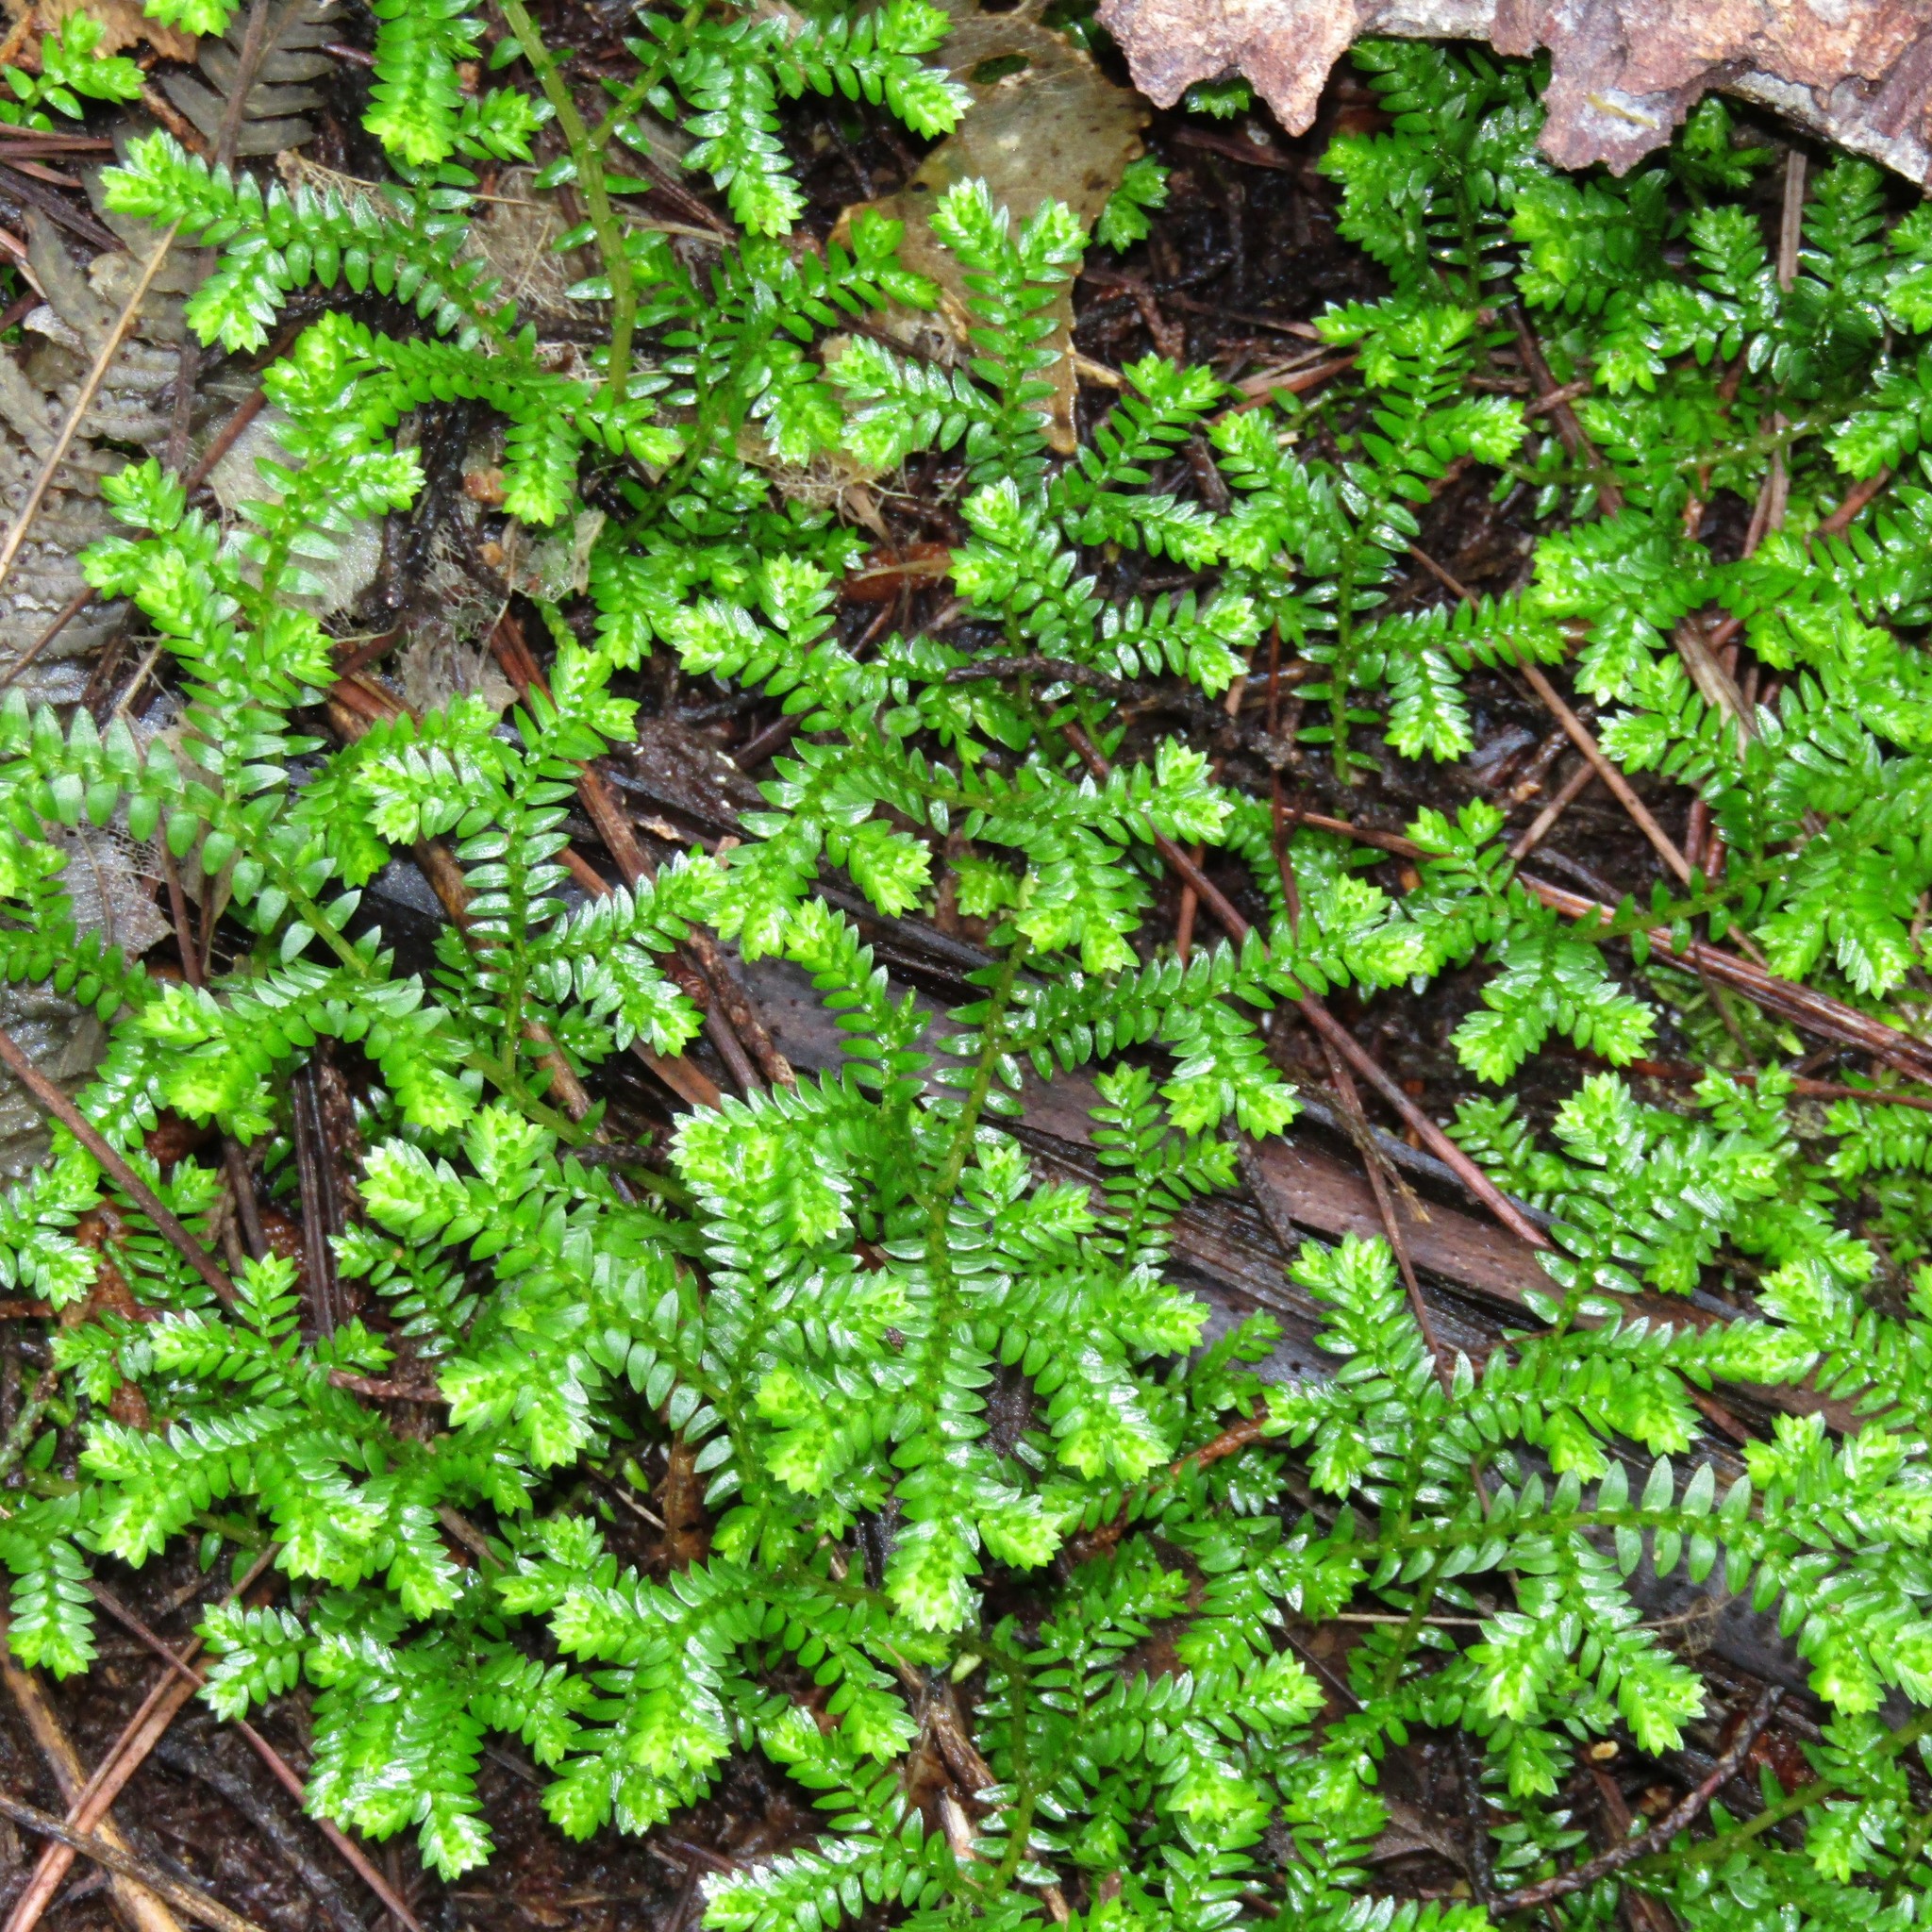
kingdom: Plantae
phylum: Tracheophyta
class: Lycopodiopsida
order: Selaginellales
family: Selaginellaceae
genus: Selaginella
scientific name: Selaginella kraussiana
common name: Krauss' spikemoss
